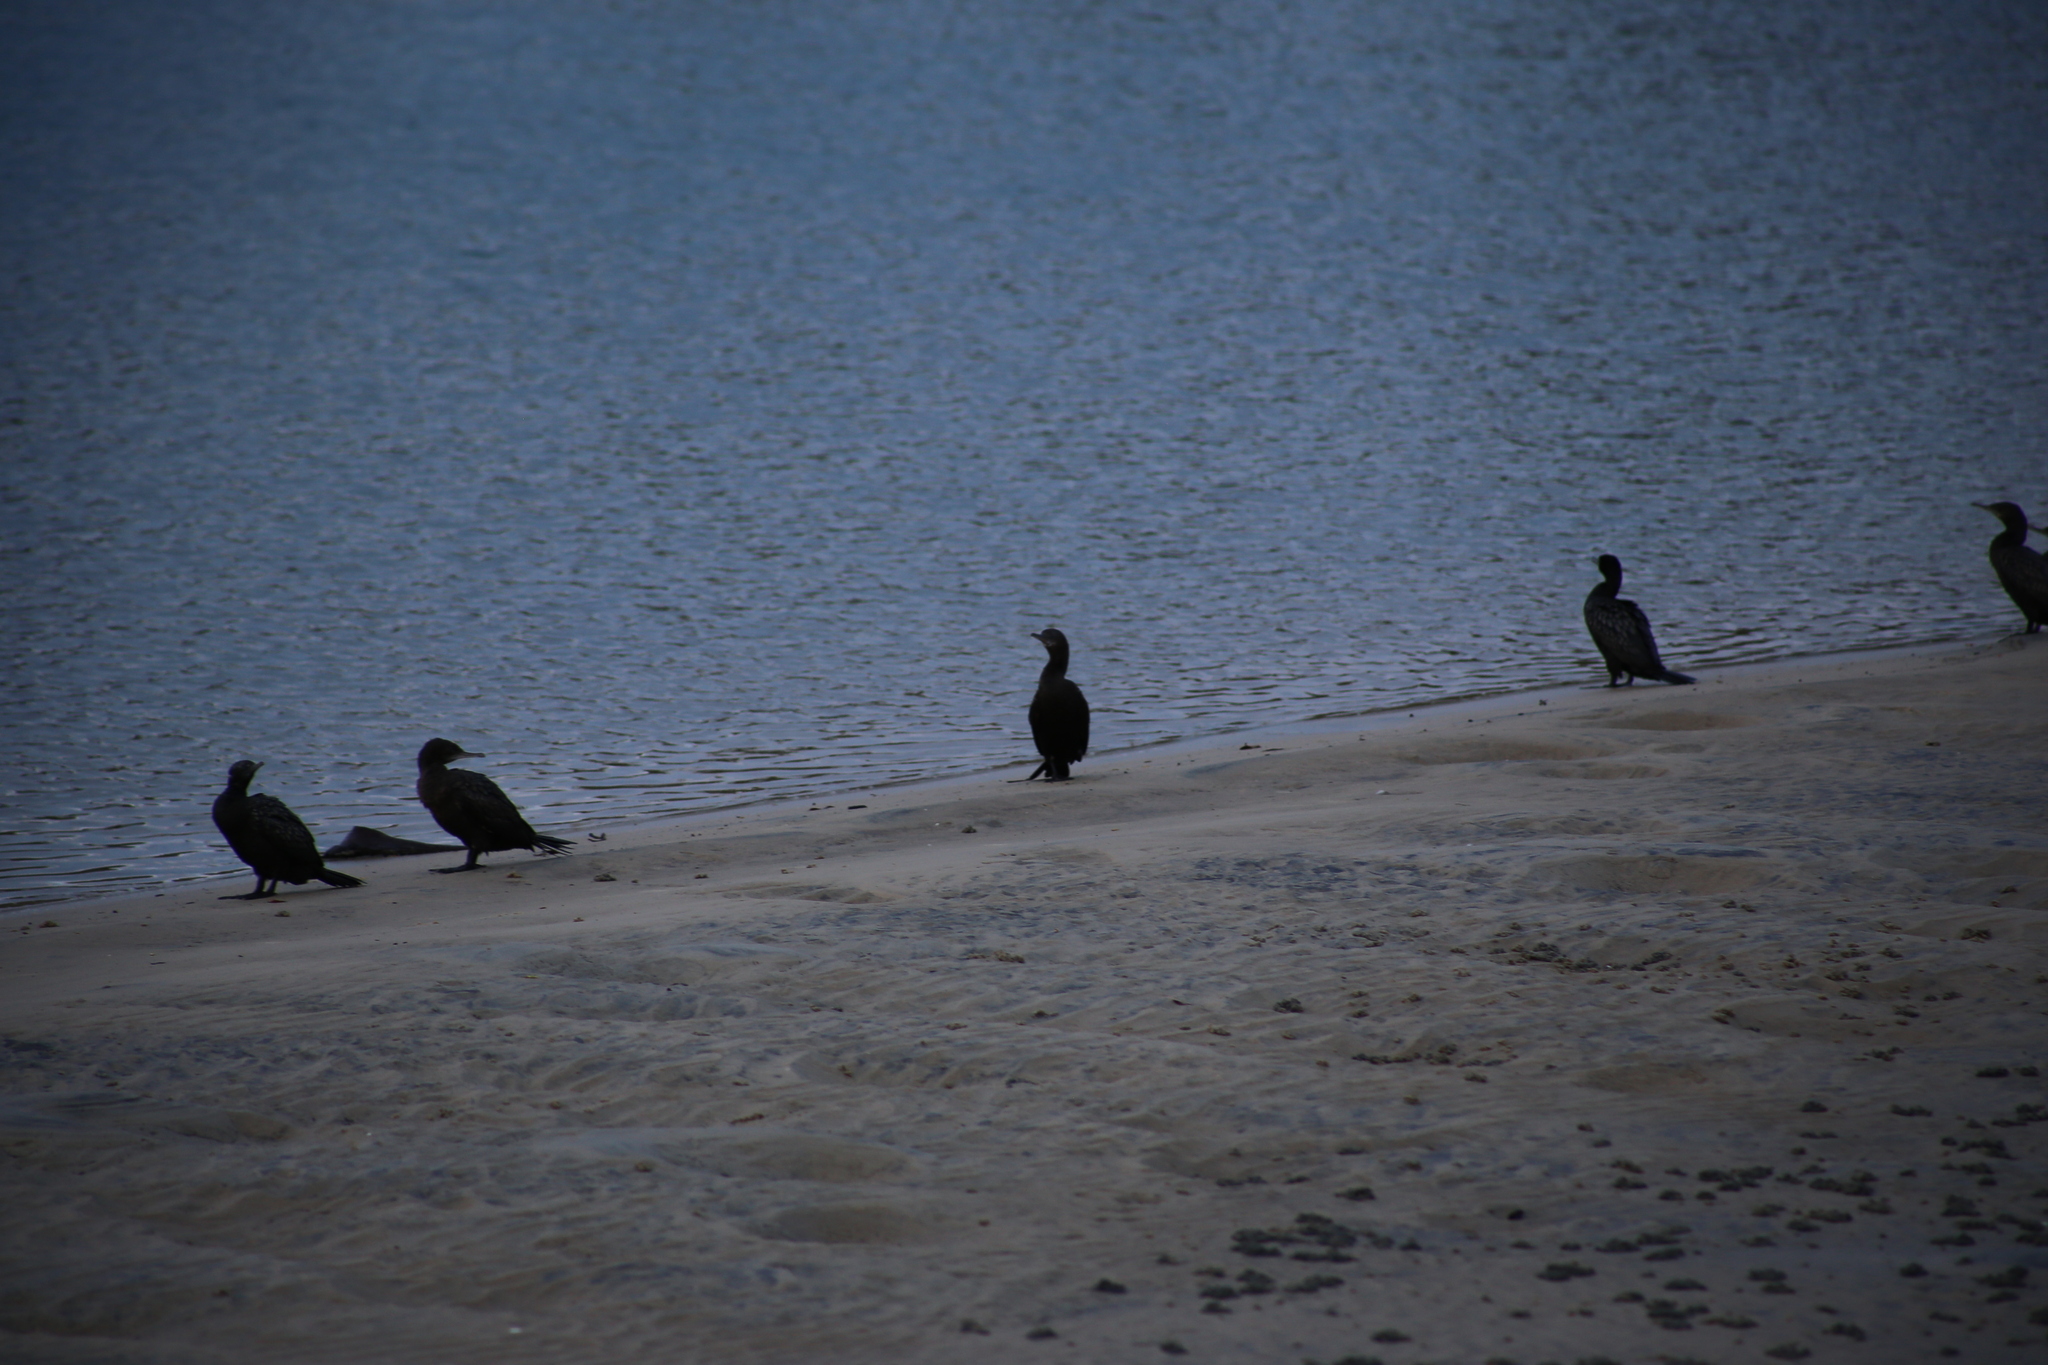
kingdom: Animalia
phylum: Chordata
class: Aves
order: Suliformes
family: Phalacrocoracidae
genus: Phalacrocorax
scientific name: Phalacrocorax sulcirostris
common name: Little black cormorant
